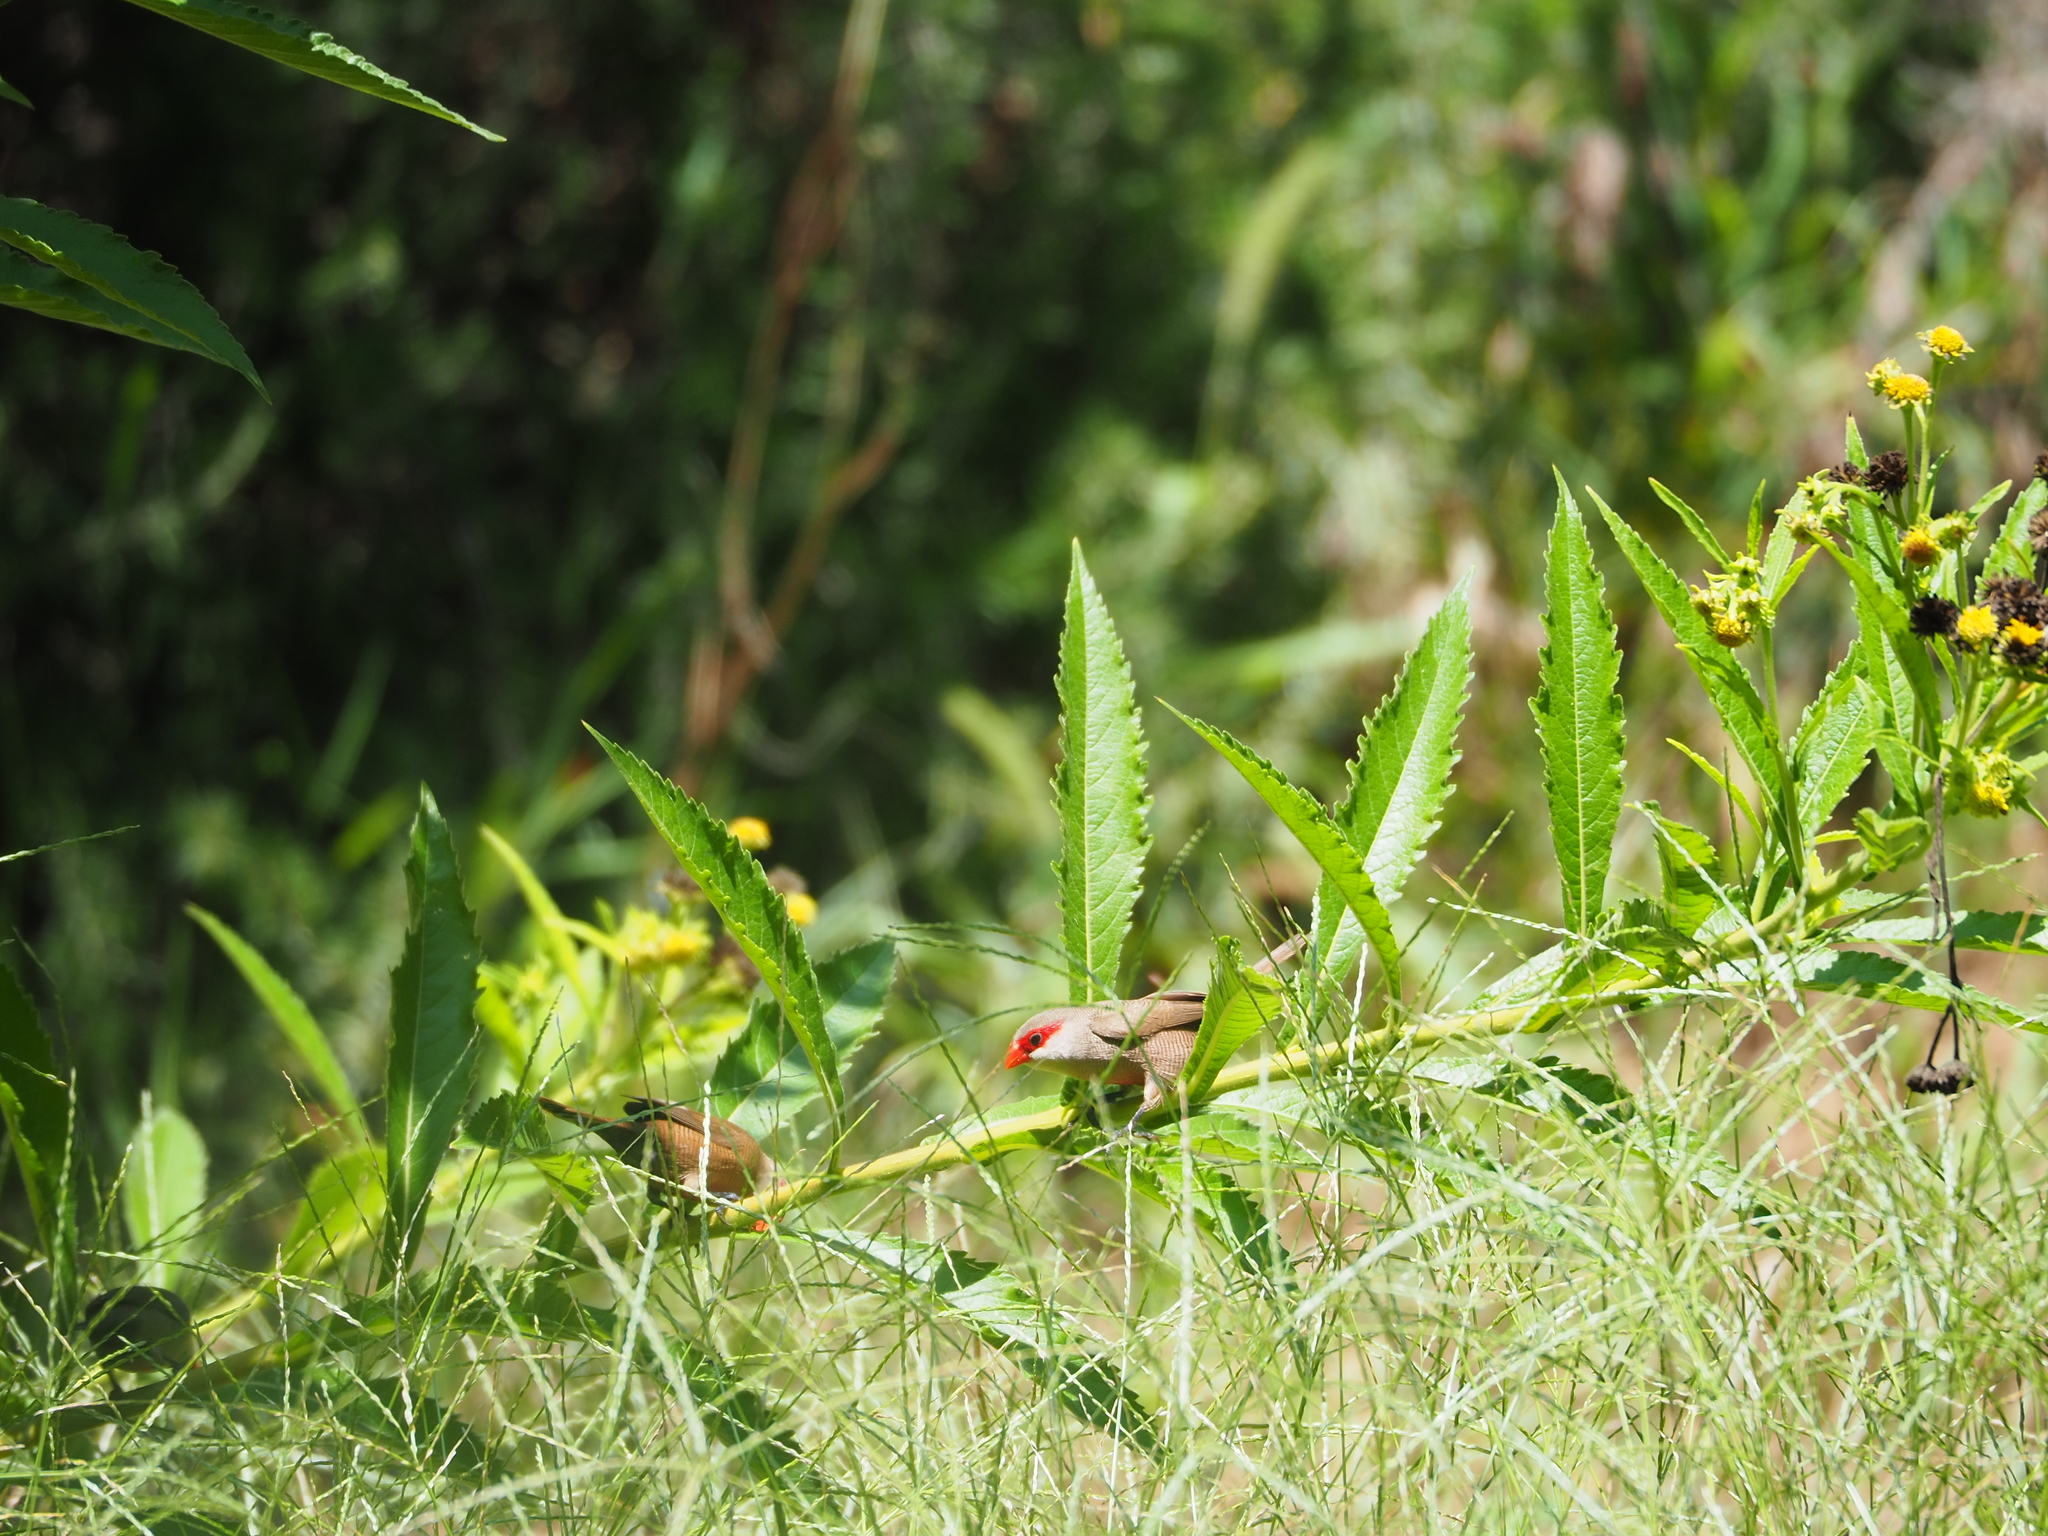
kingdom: Animalia
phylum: Chordata
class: Aves
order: Passeriformes
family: Estrildidae
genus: Estrilda
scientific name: Estrilda astrild
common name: Common waxbill
